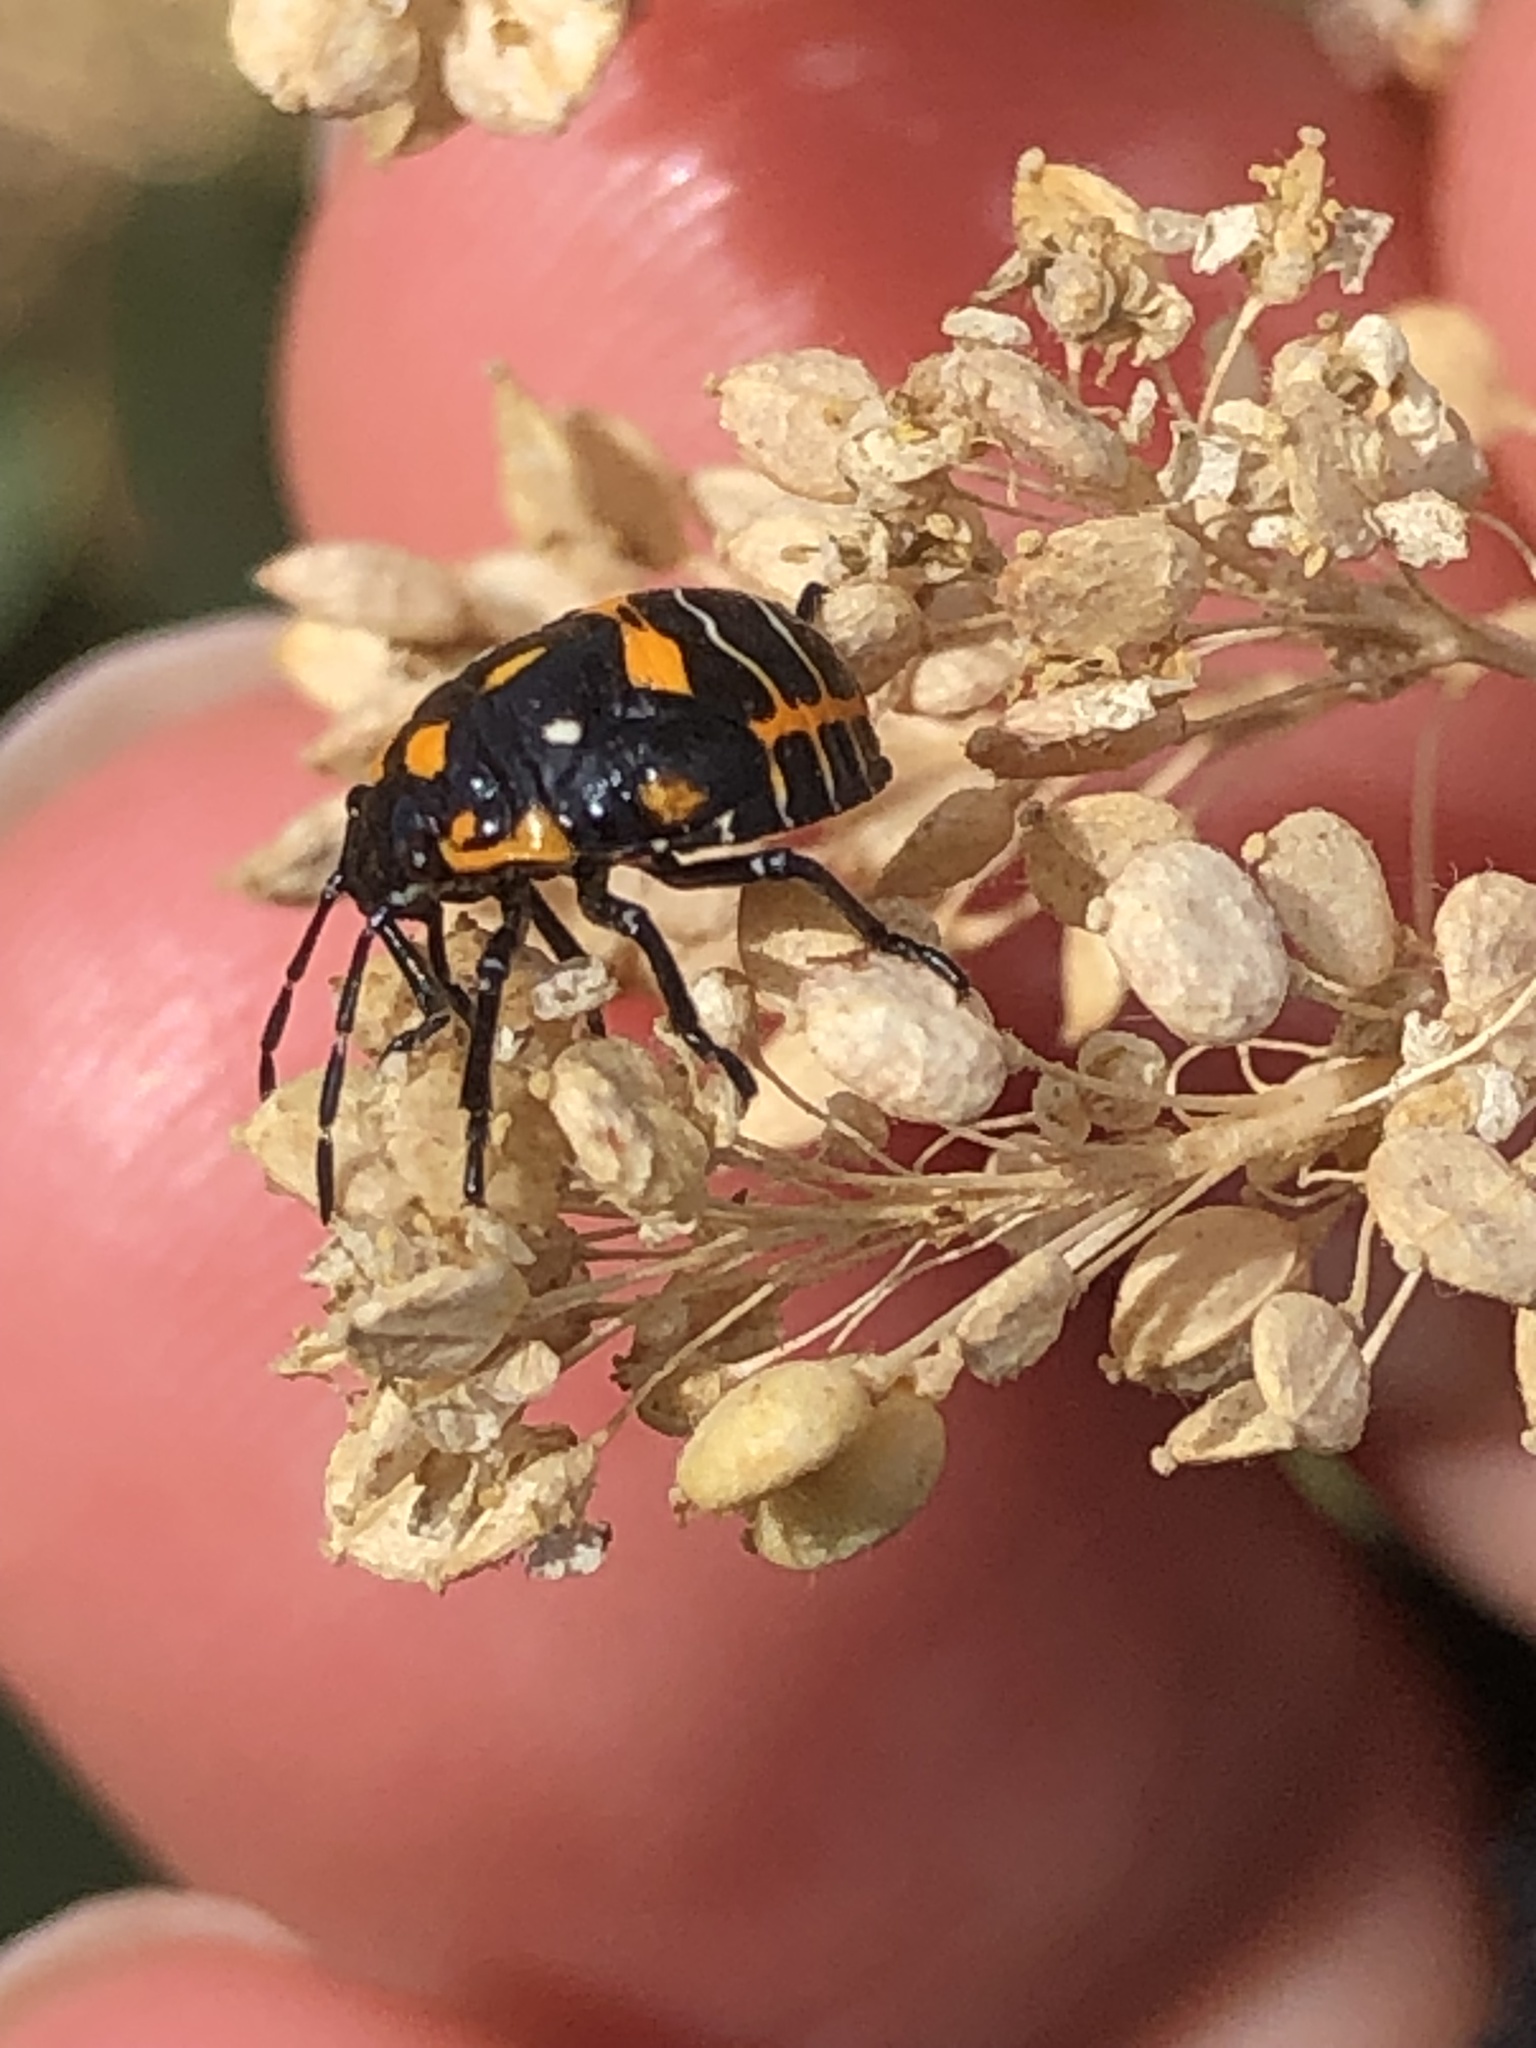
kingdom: Animalia
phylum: Arthropoda
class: Insecta
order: Hemiptera
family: Pentatomidae
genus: Murgantia
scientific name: Murgantia histrionica
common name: Harlequin bug
